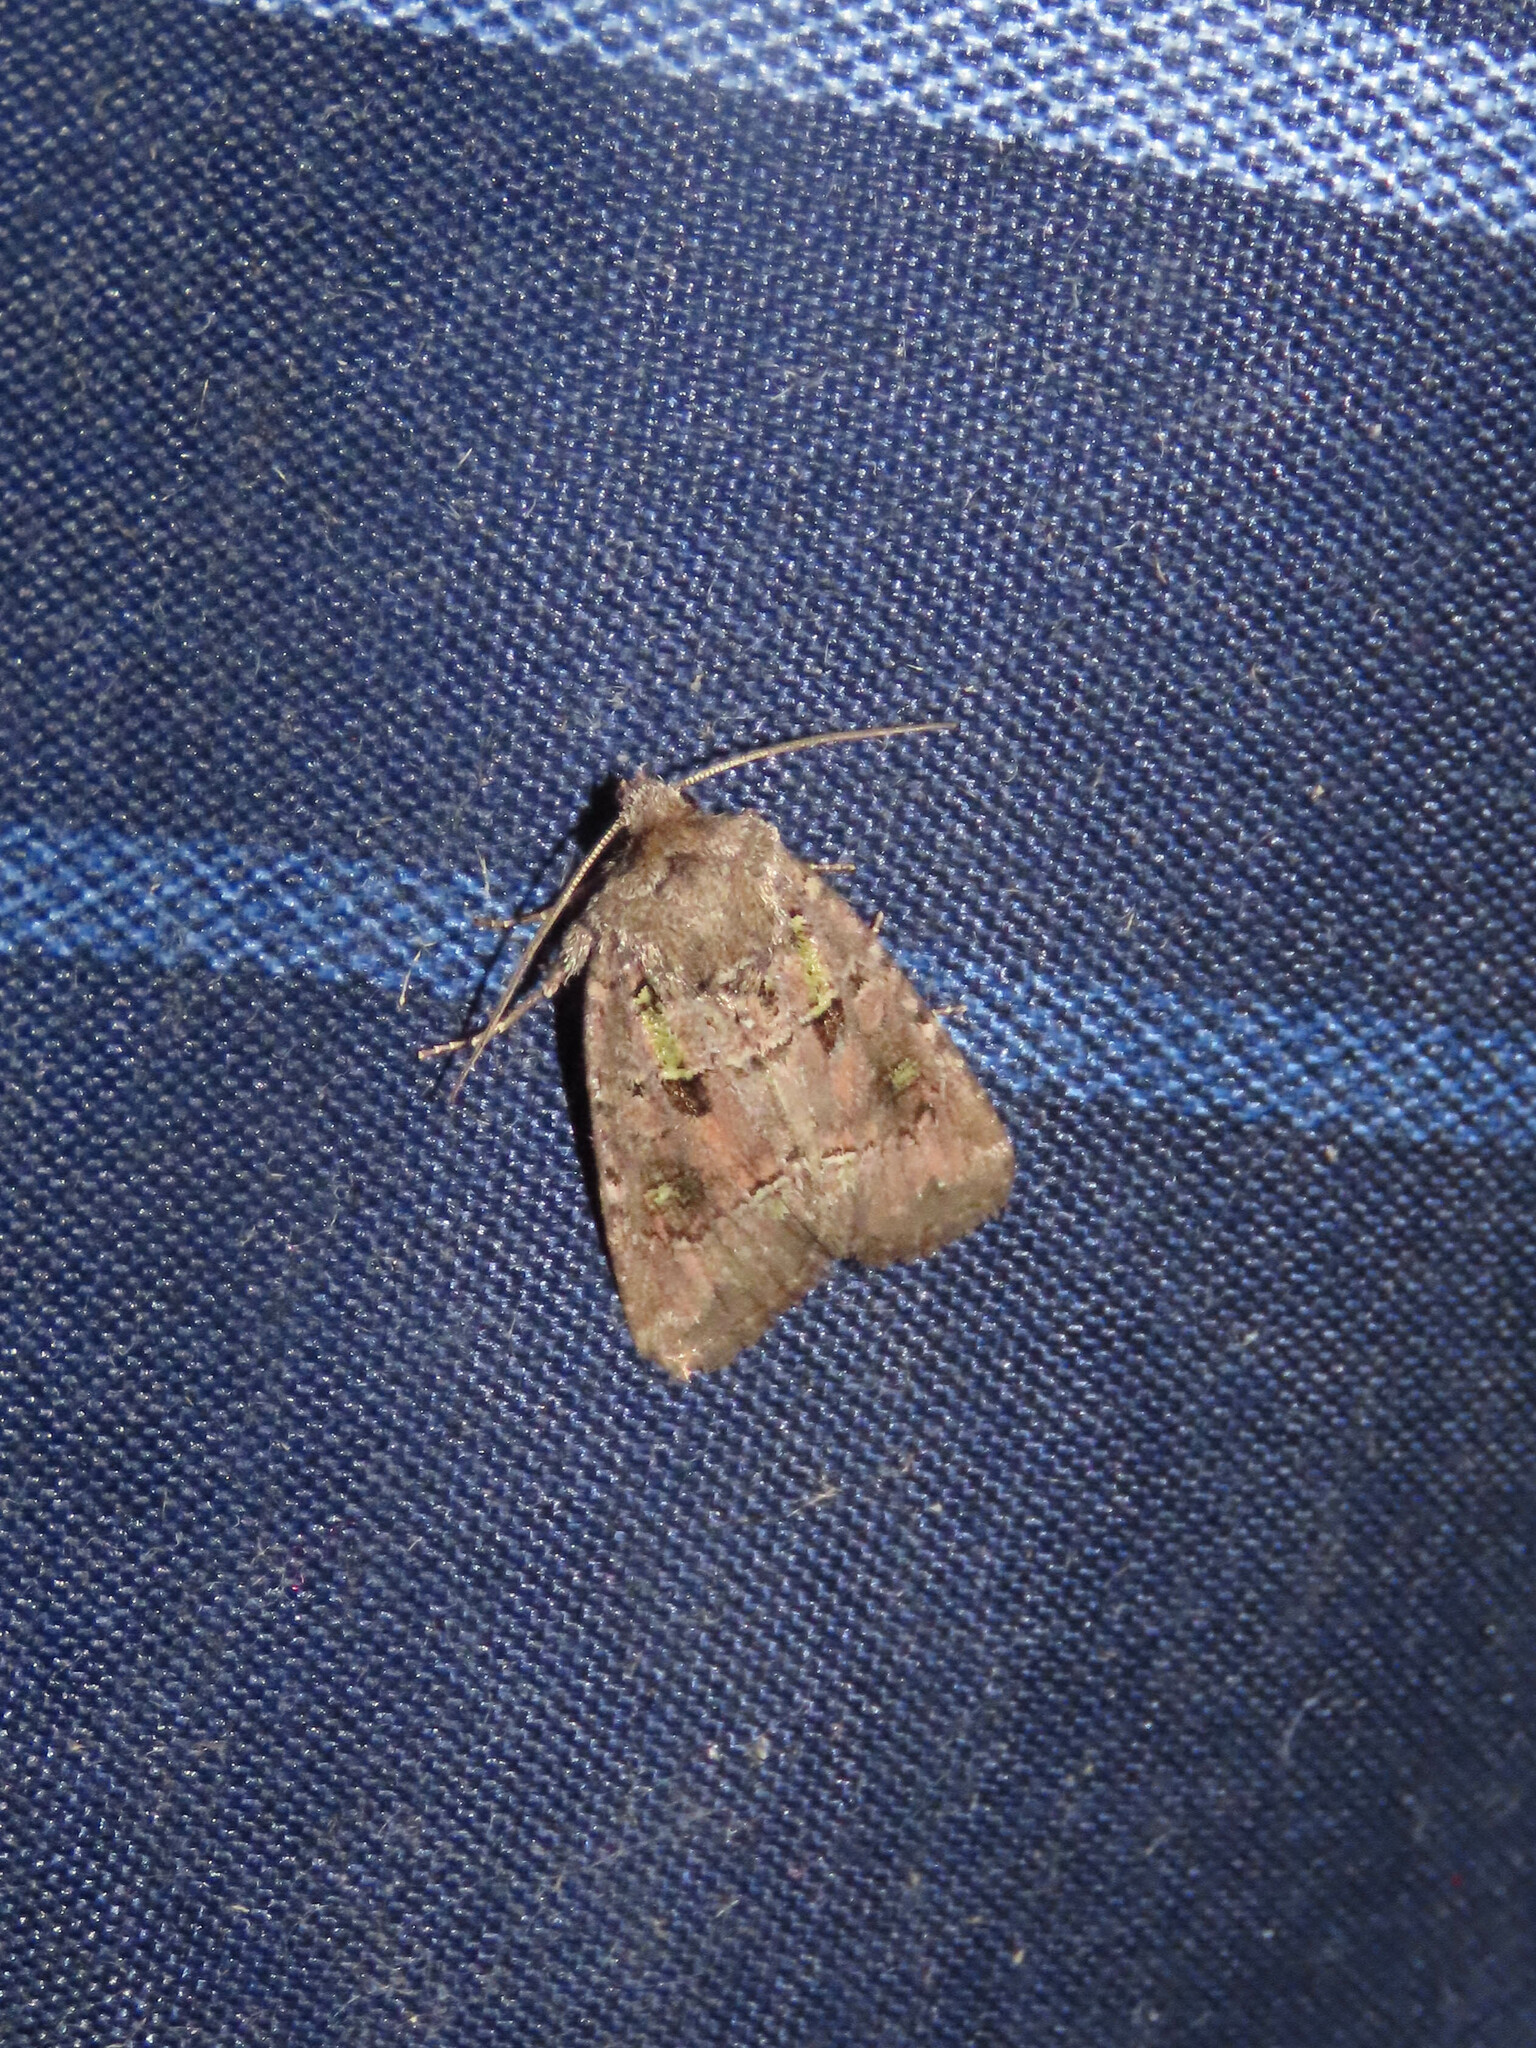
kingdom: Animalia
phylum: Arthropoda
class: Insecta
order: Lepidoptera
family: Noctuidae
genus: Lacinipolia
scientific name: Lacinipolia renigera
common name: Kidney-spotted minor
